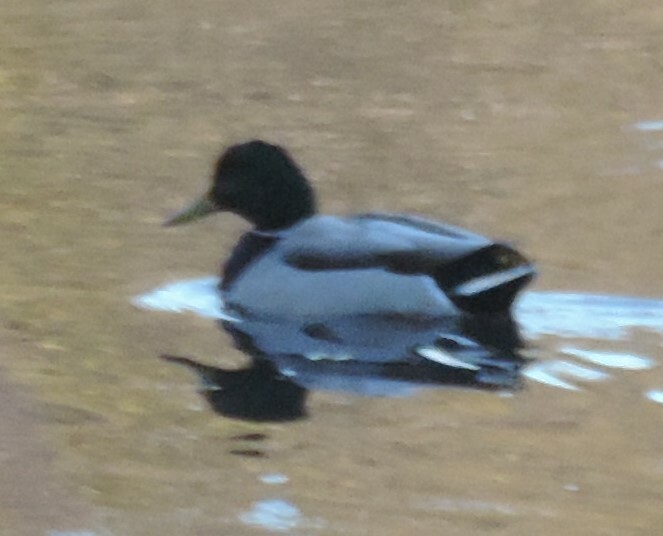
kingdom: Animalia
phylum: Chordata
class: Aves
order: Anseriformes
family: Anatidae
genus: Anas
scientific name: Anas platyrhynchos
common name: Mallard
